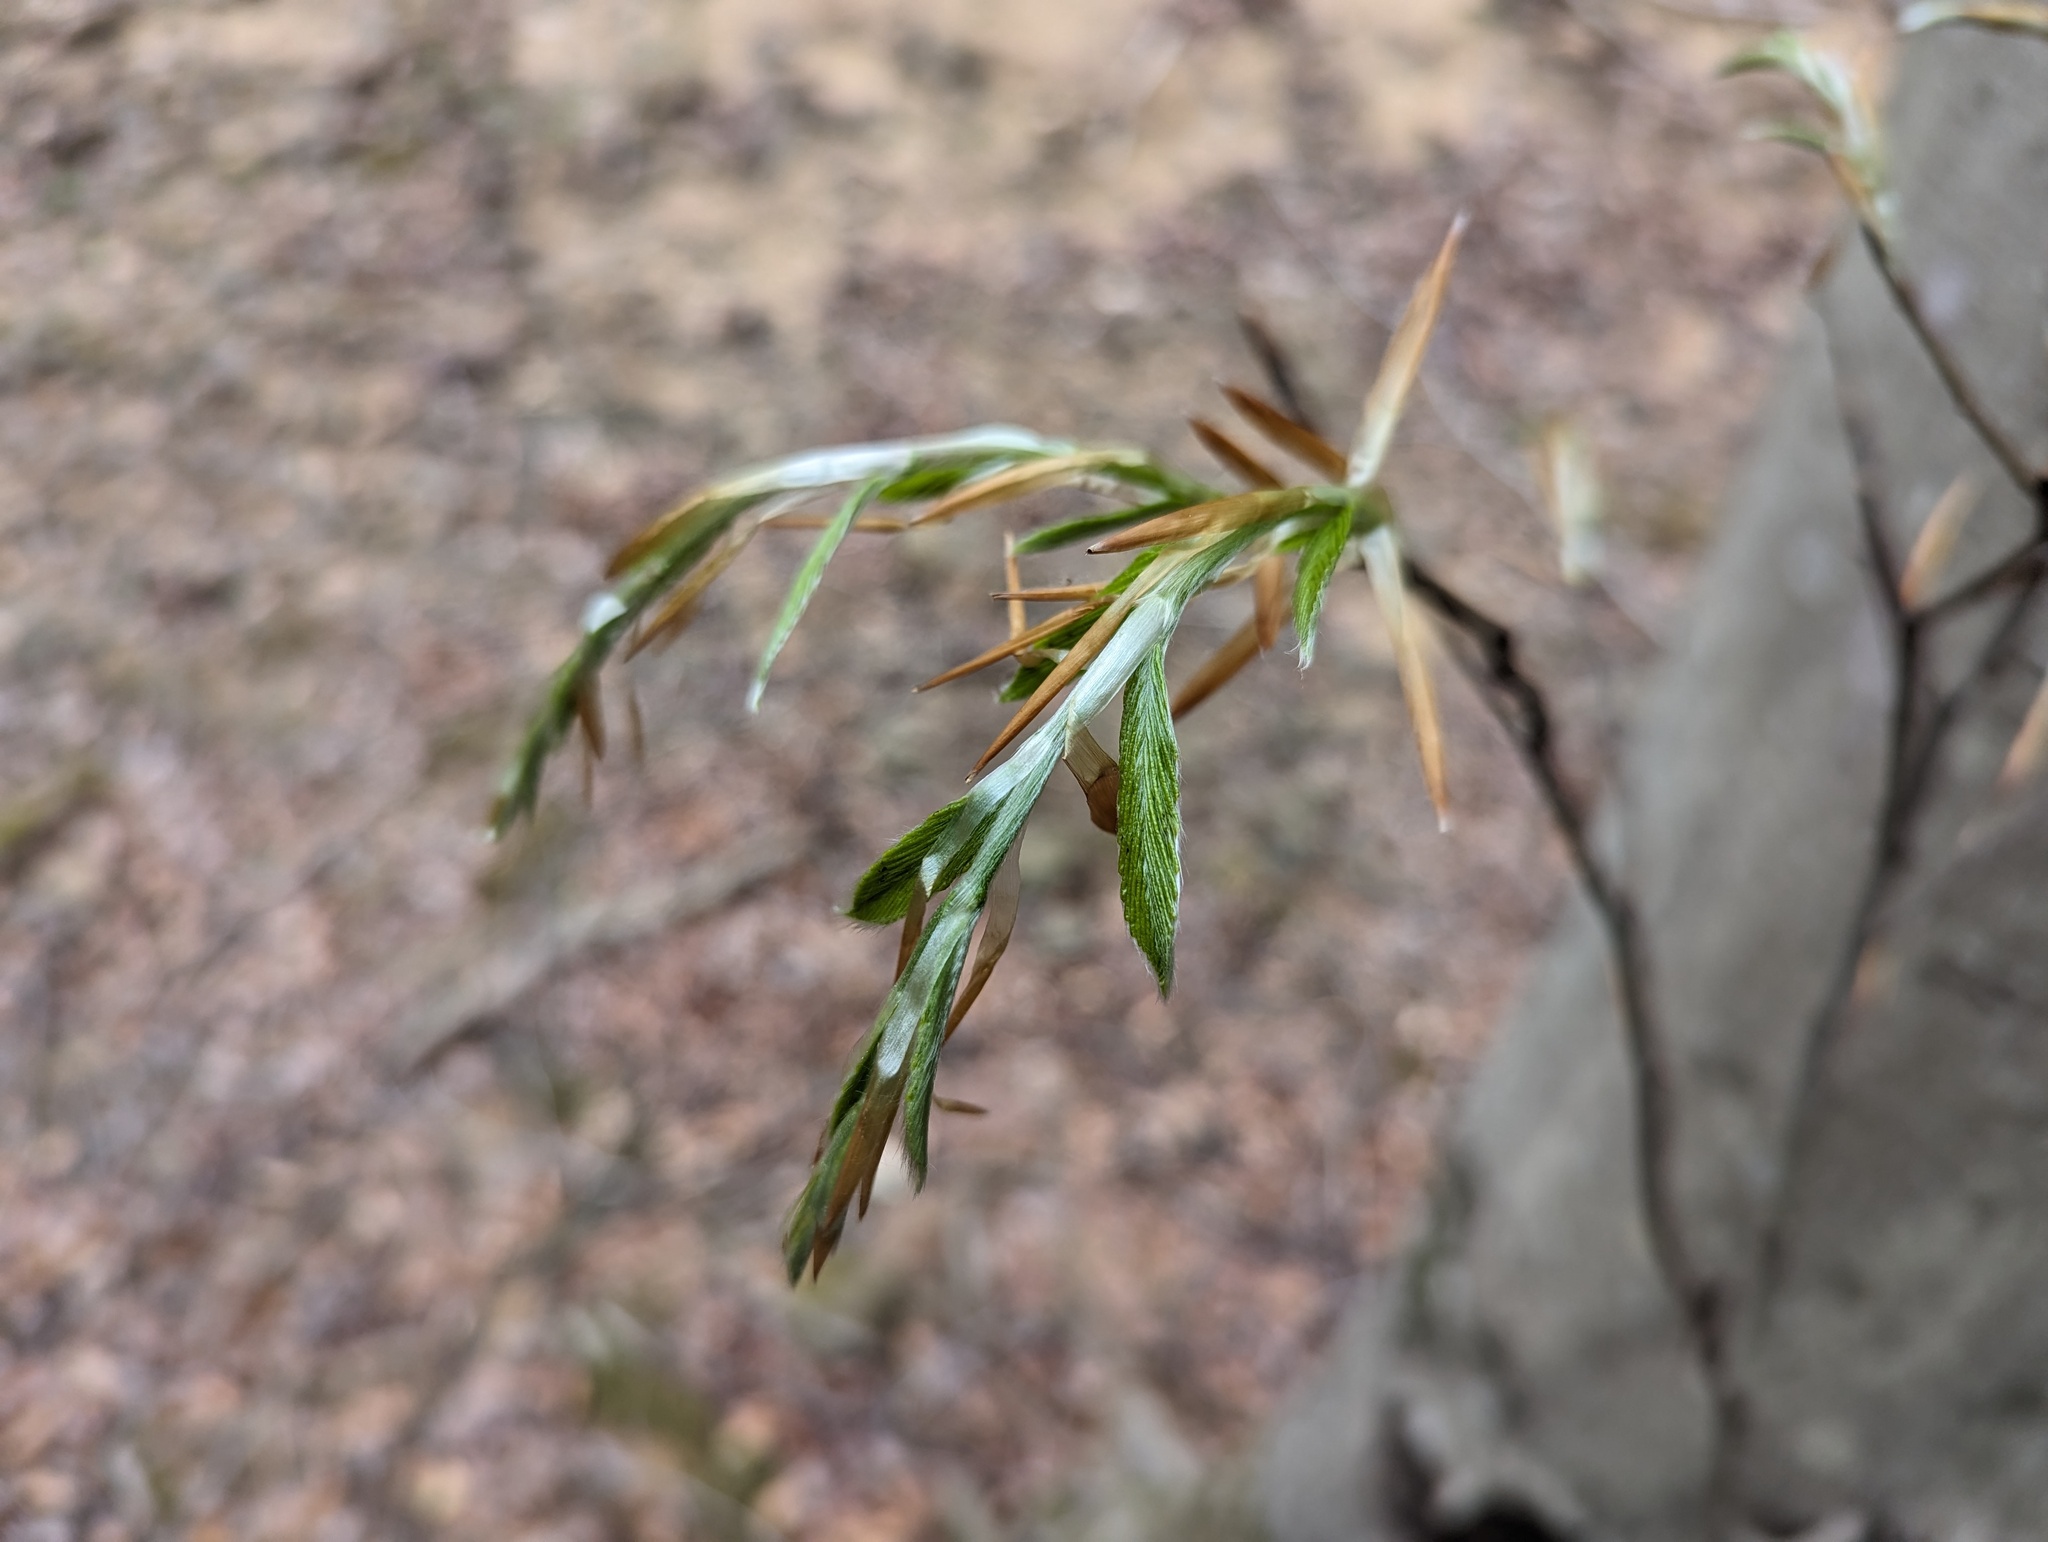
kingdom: Plantae
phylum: Tracheophyta
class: Magnoliopsida
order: Fagales
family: Fagaceae
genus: Fagus
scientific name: Fagus grandifolia
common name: American beech
